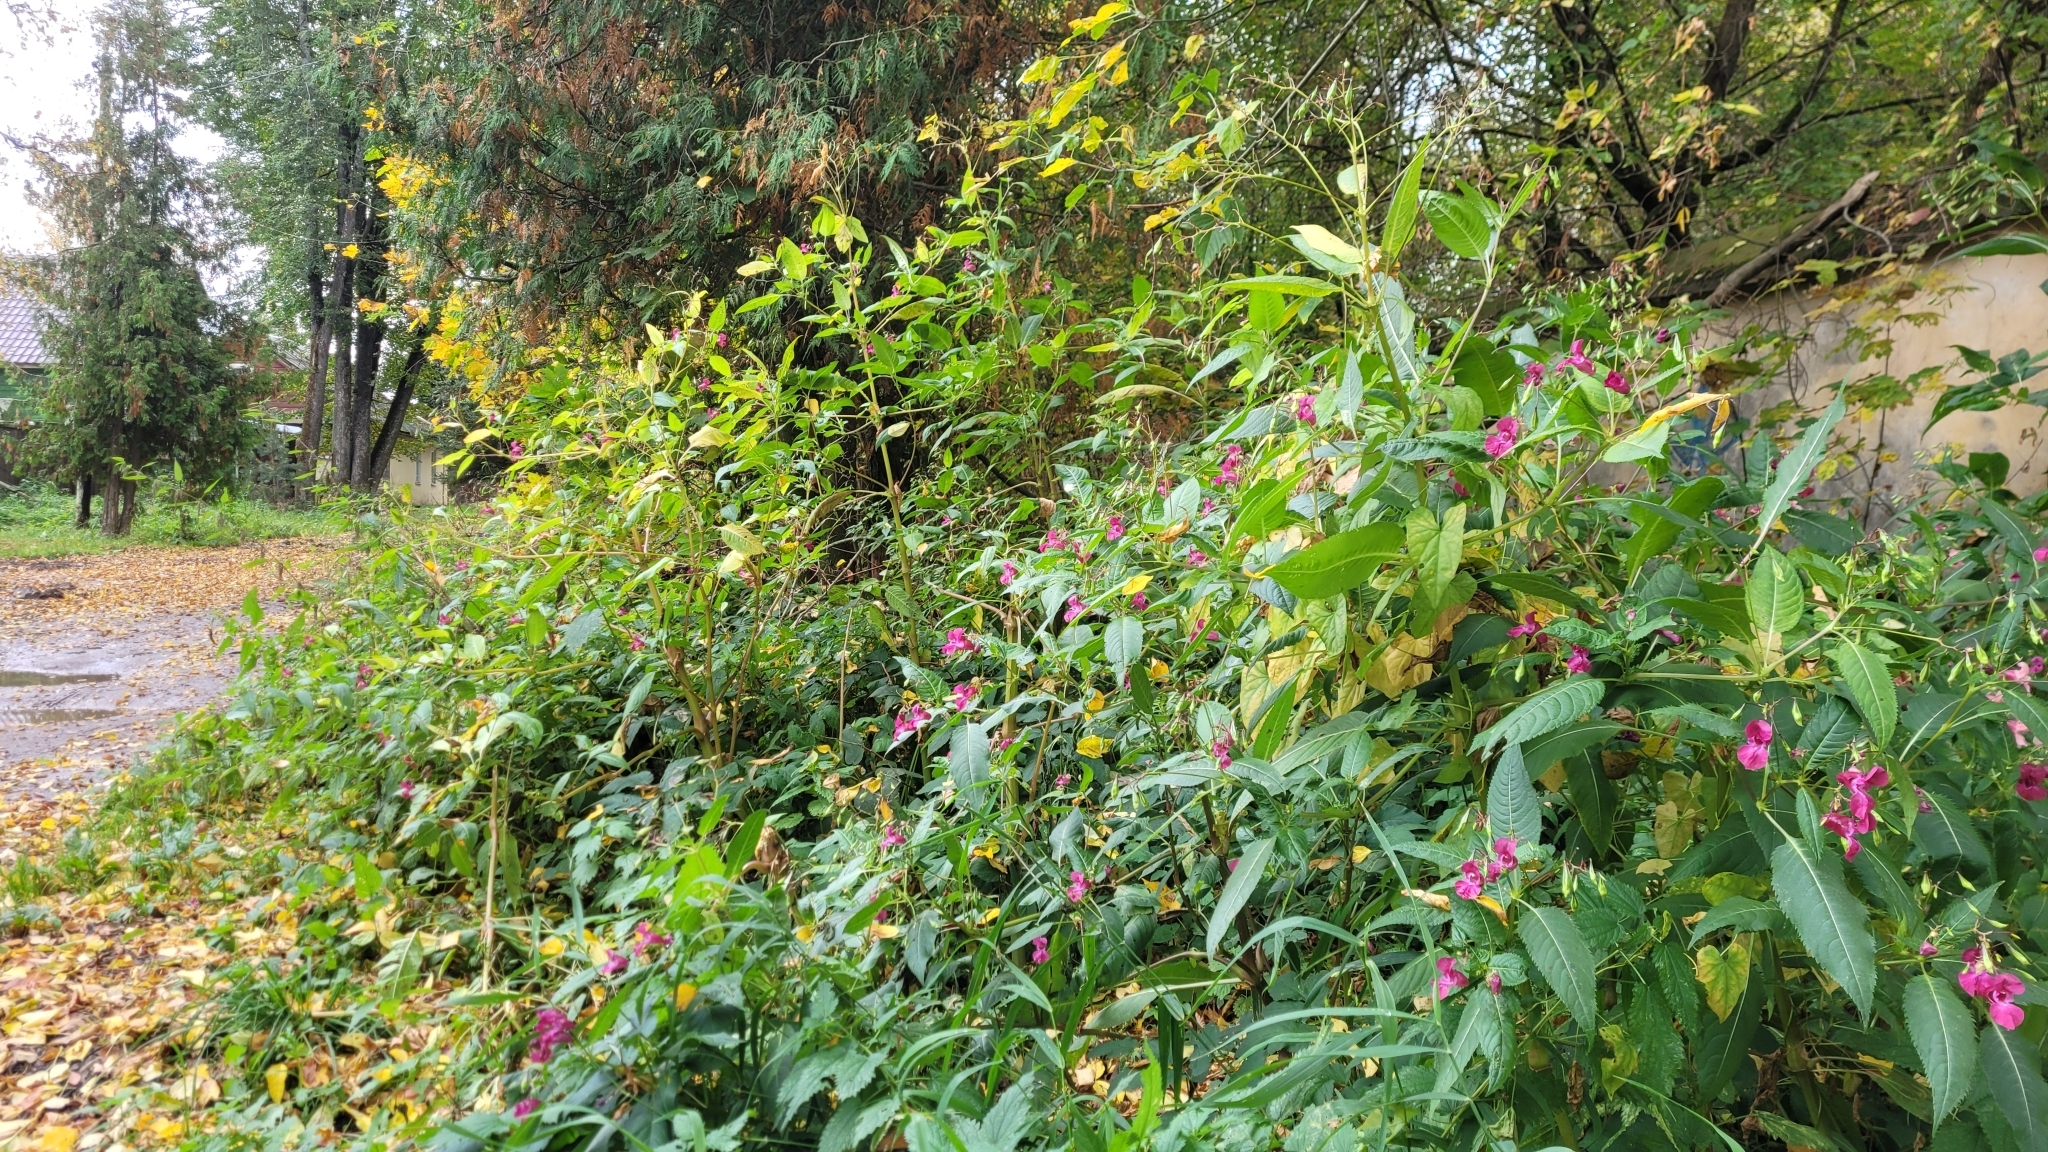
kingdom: Plantae
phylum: Tracheophyta
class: Magnoliopsida
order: Ericales
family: Balsaminaceae
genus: Impatiens
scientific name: Impatiens glandulifera
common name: Himalayan balsam
